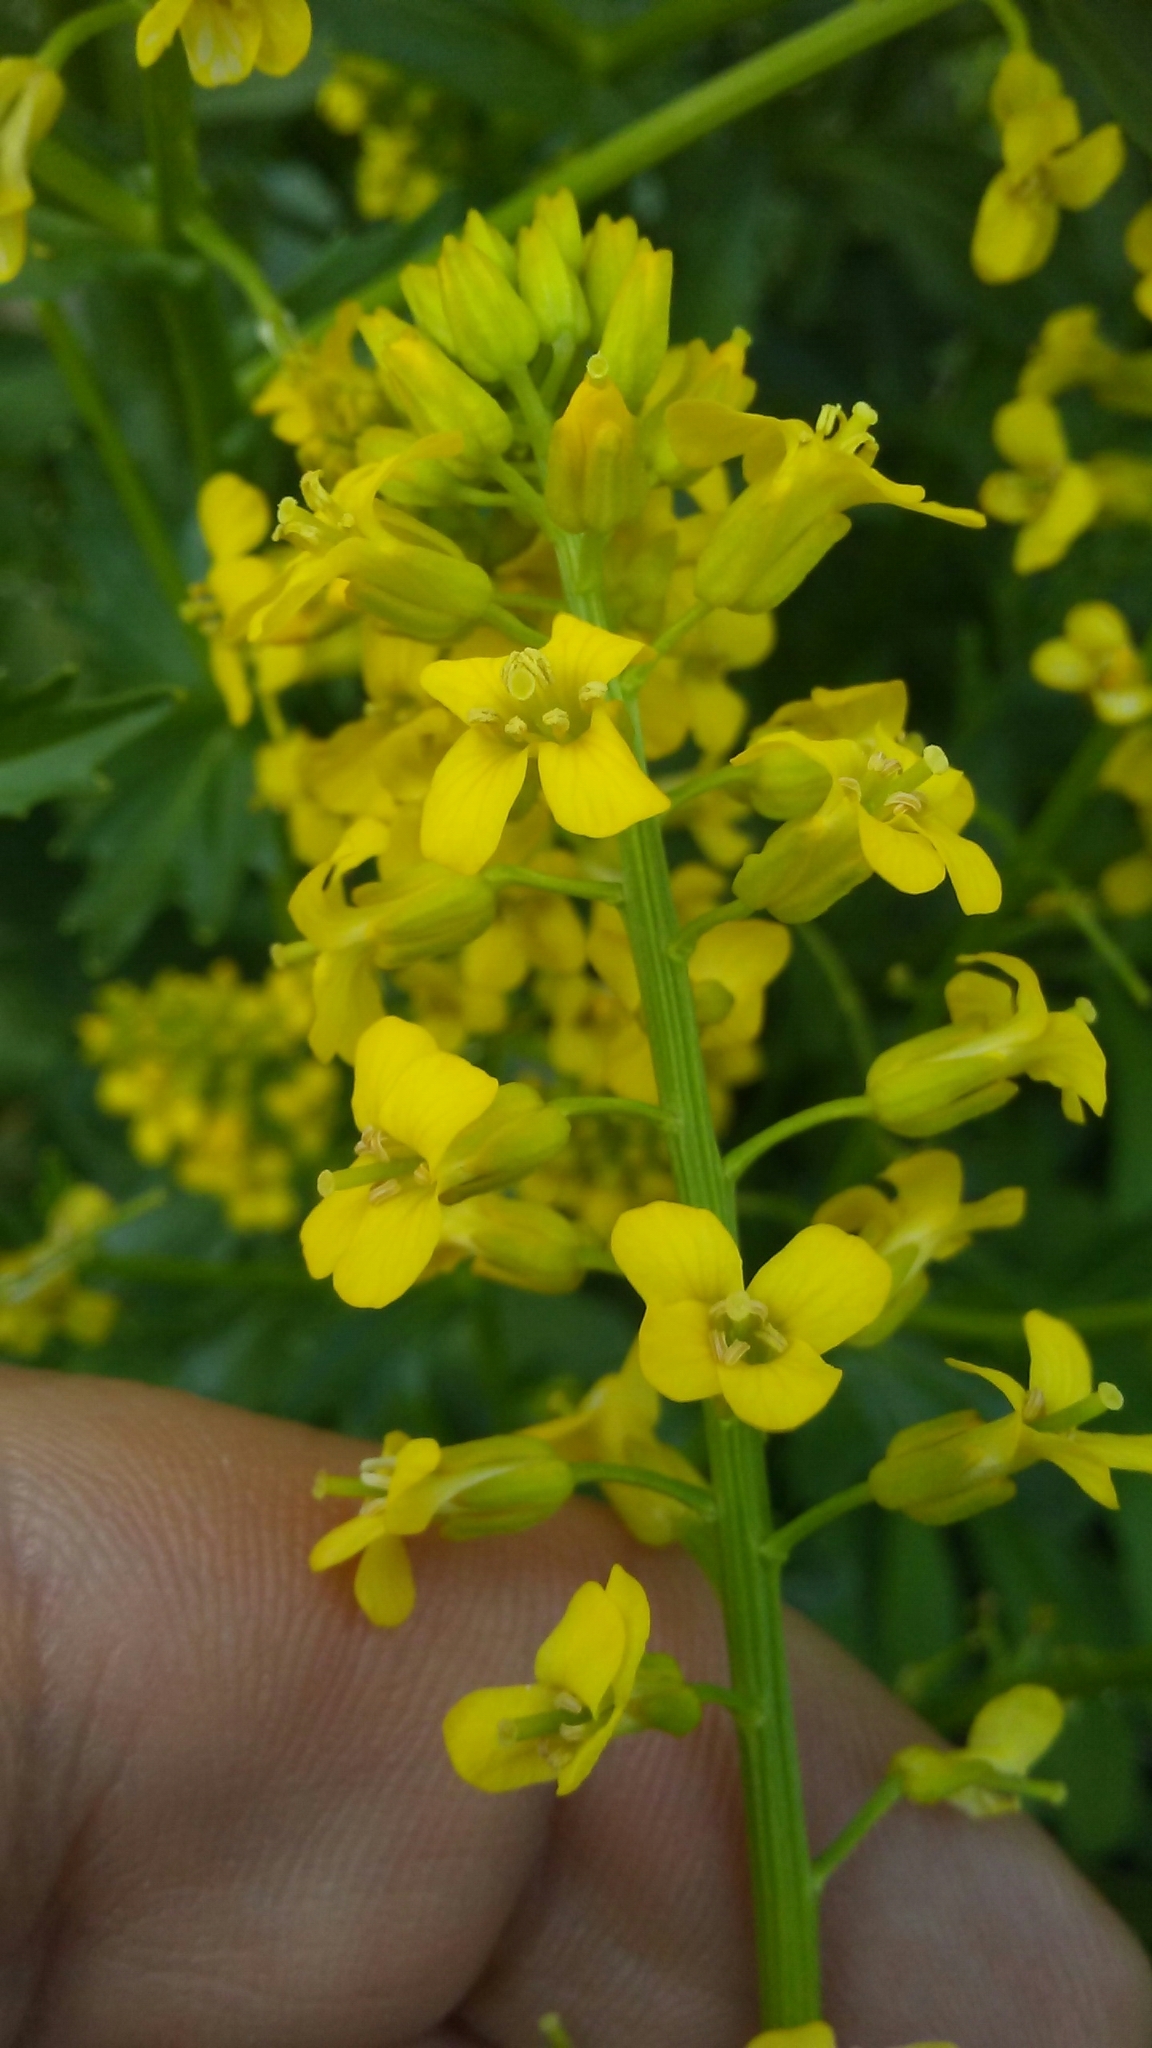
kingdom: Plantae
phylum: Tracheophyta
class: Magnoliopsida
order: Brassicales
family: Brassicaceae
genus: Barbarea
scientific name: Barbarea vulgaris
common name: Cressy-greens
